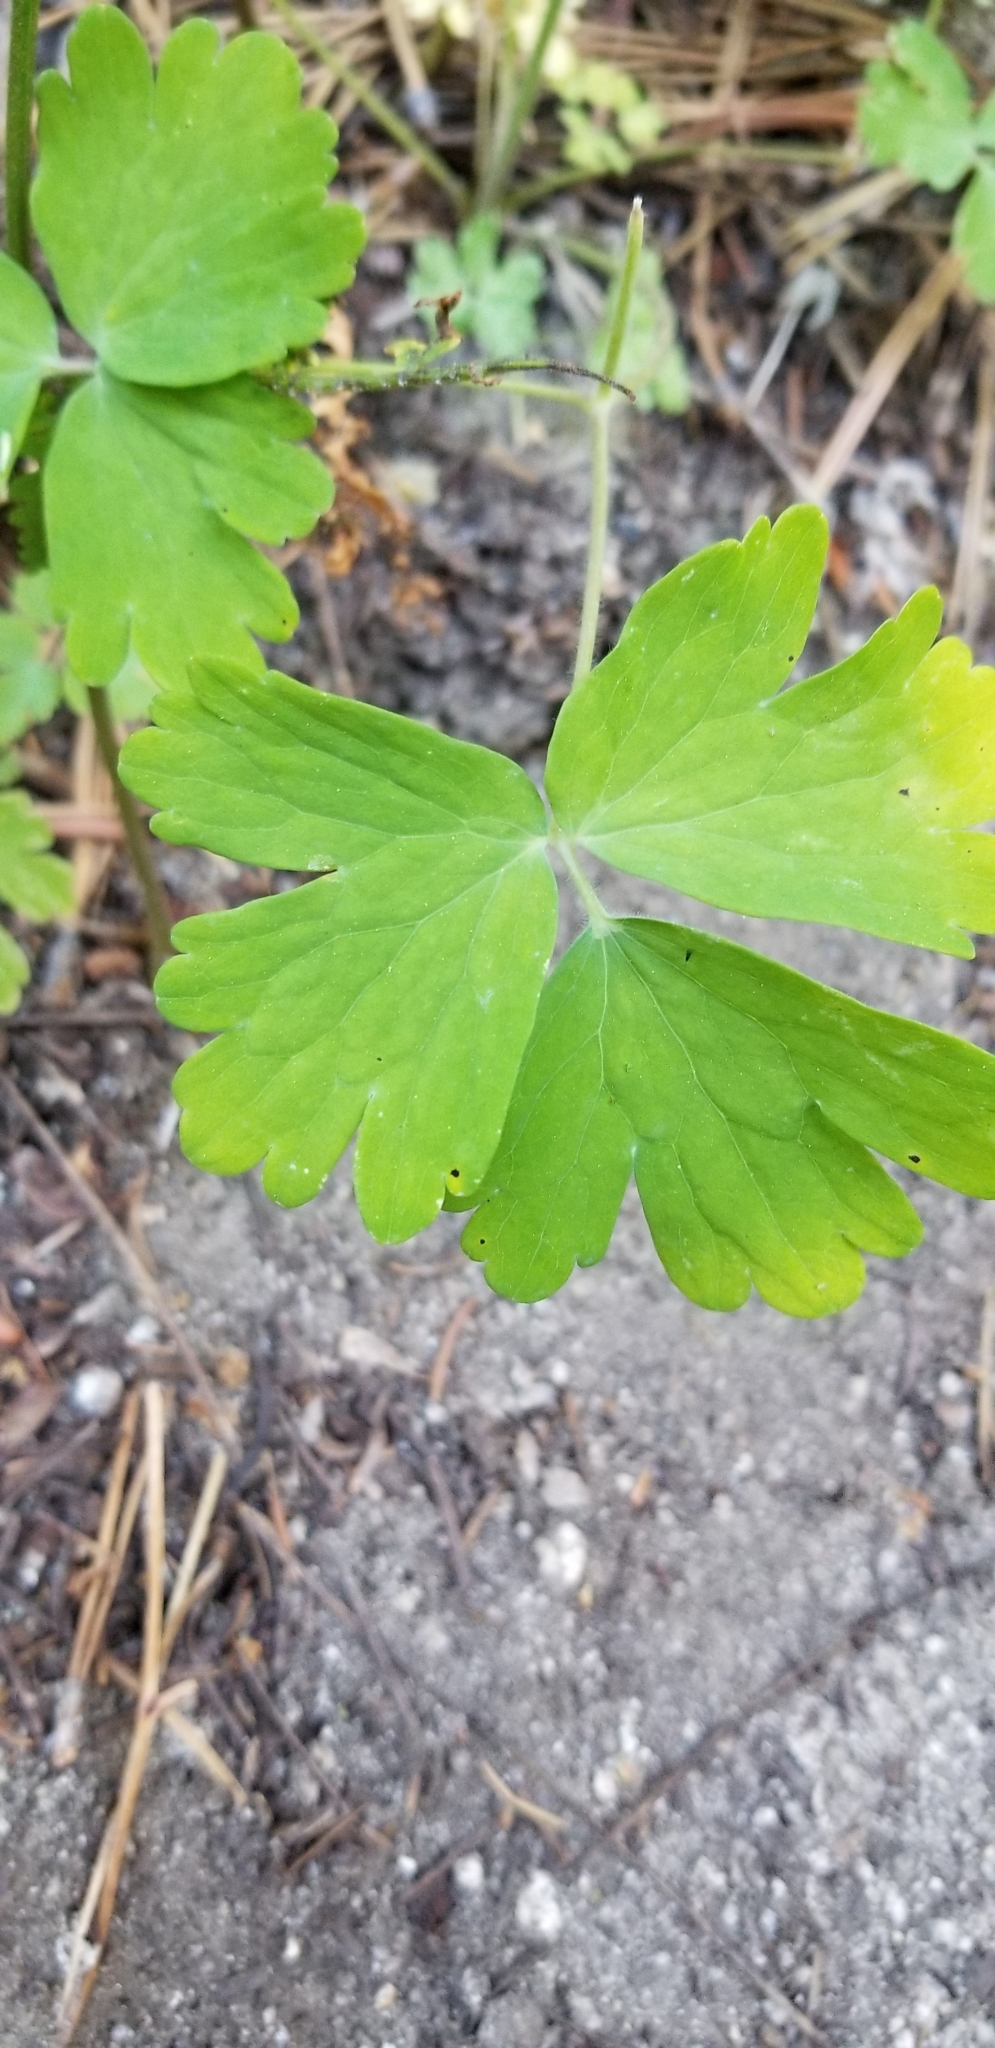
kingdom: Plantae
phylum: Tracheophyta
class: Magnoliopsida
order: Ranunculales
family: Ranunculaceae
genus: Aquilegia
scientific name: Aquilegia formosa
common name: Sitka columbine
